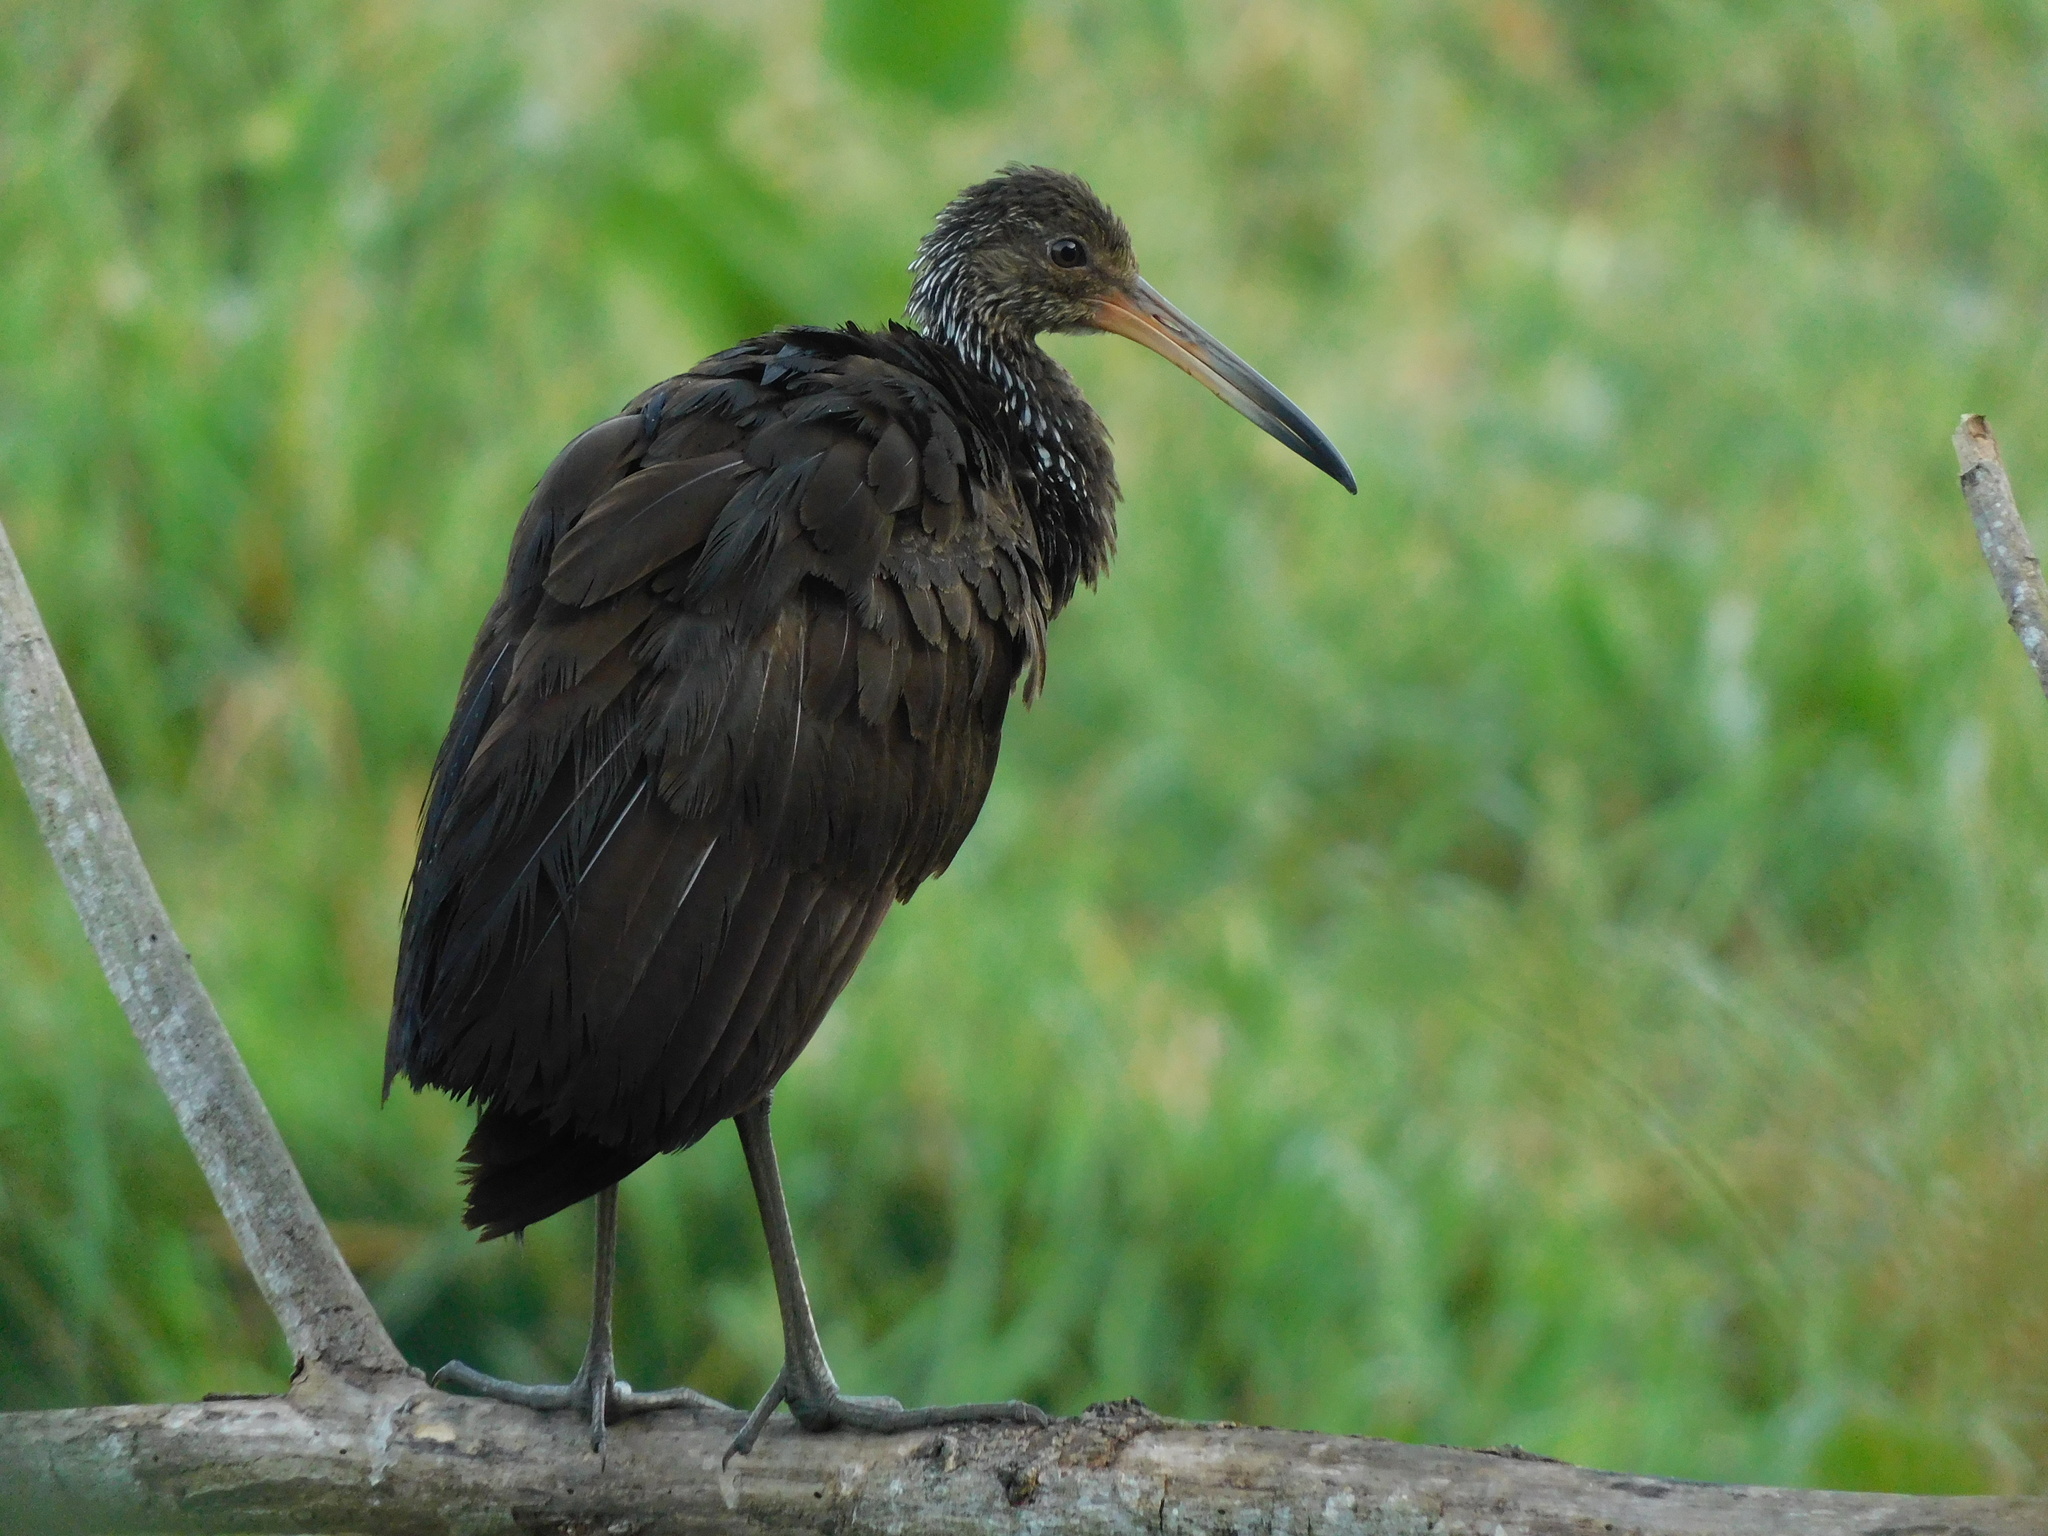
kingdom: Animalia
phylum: Chordata
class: Aves
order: Gruiformes
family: Aramidae
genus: Aramus
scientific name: Aramus guarauna
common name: Limpkin
